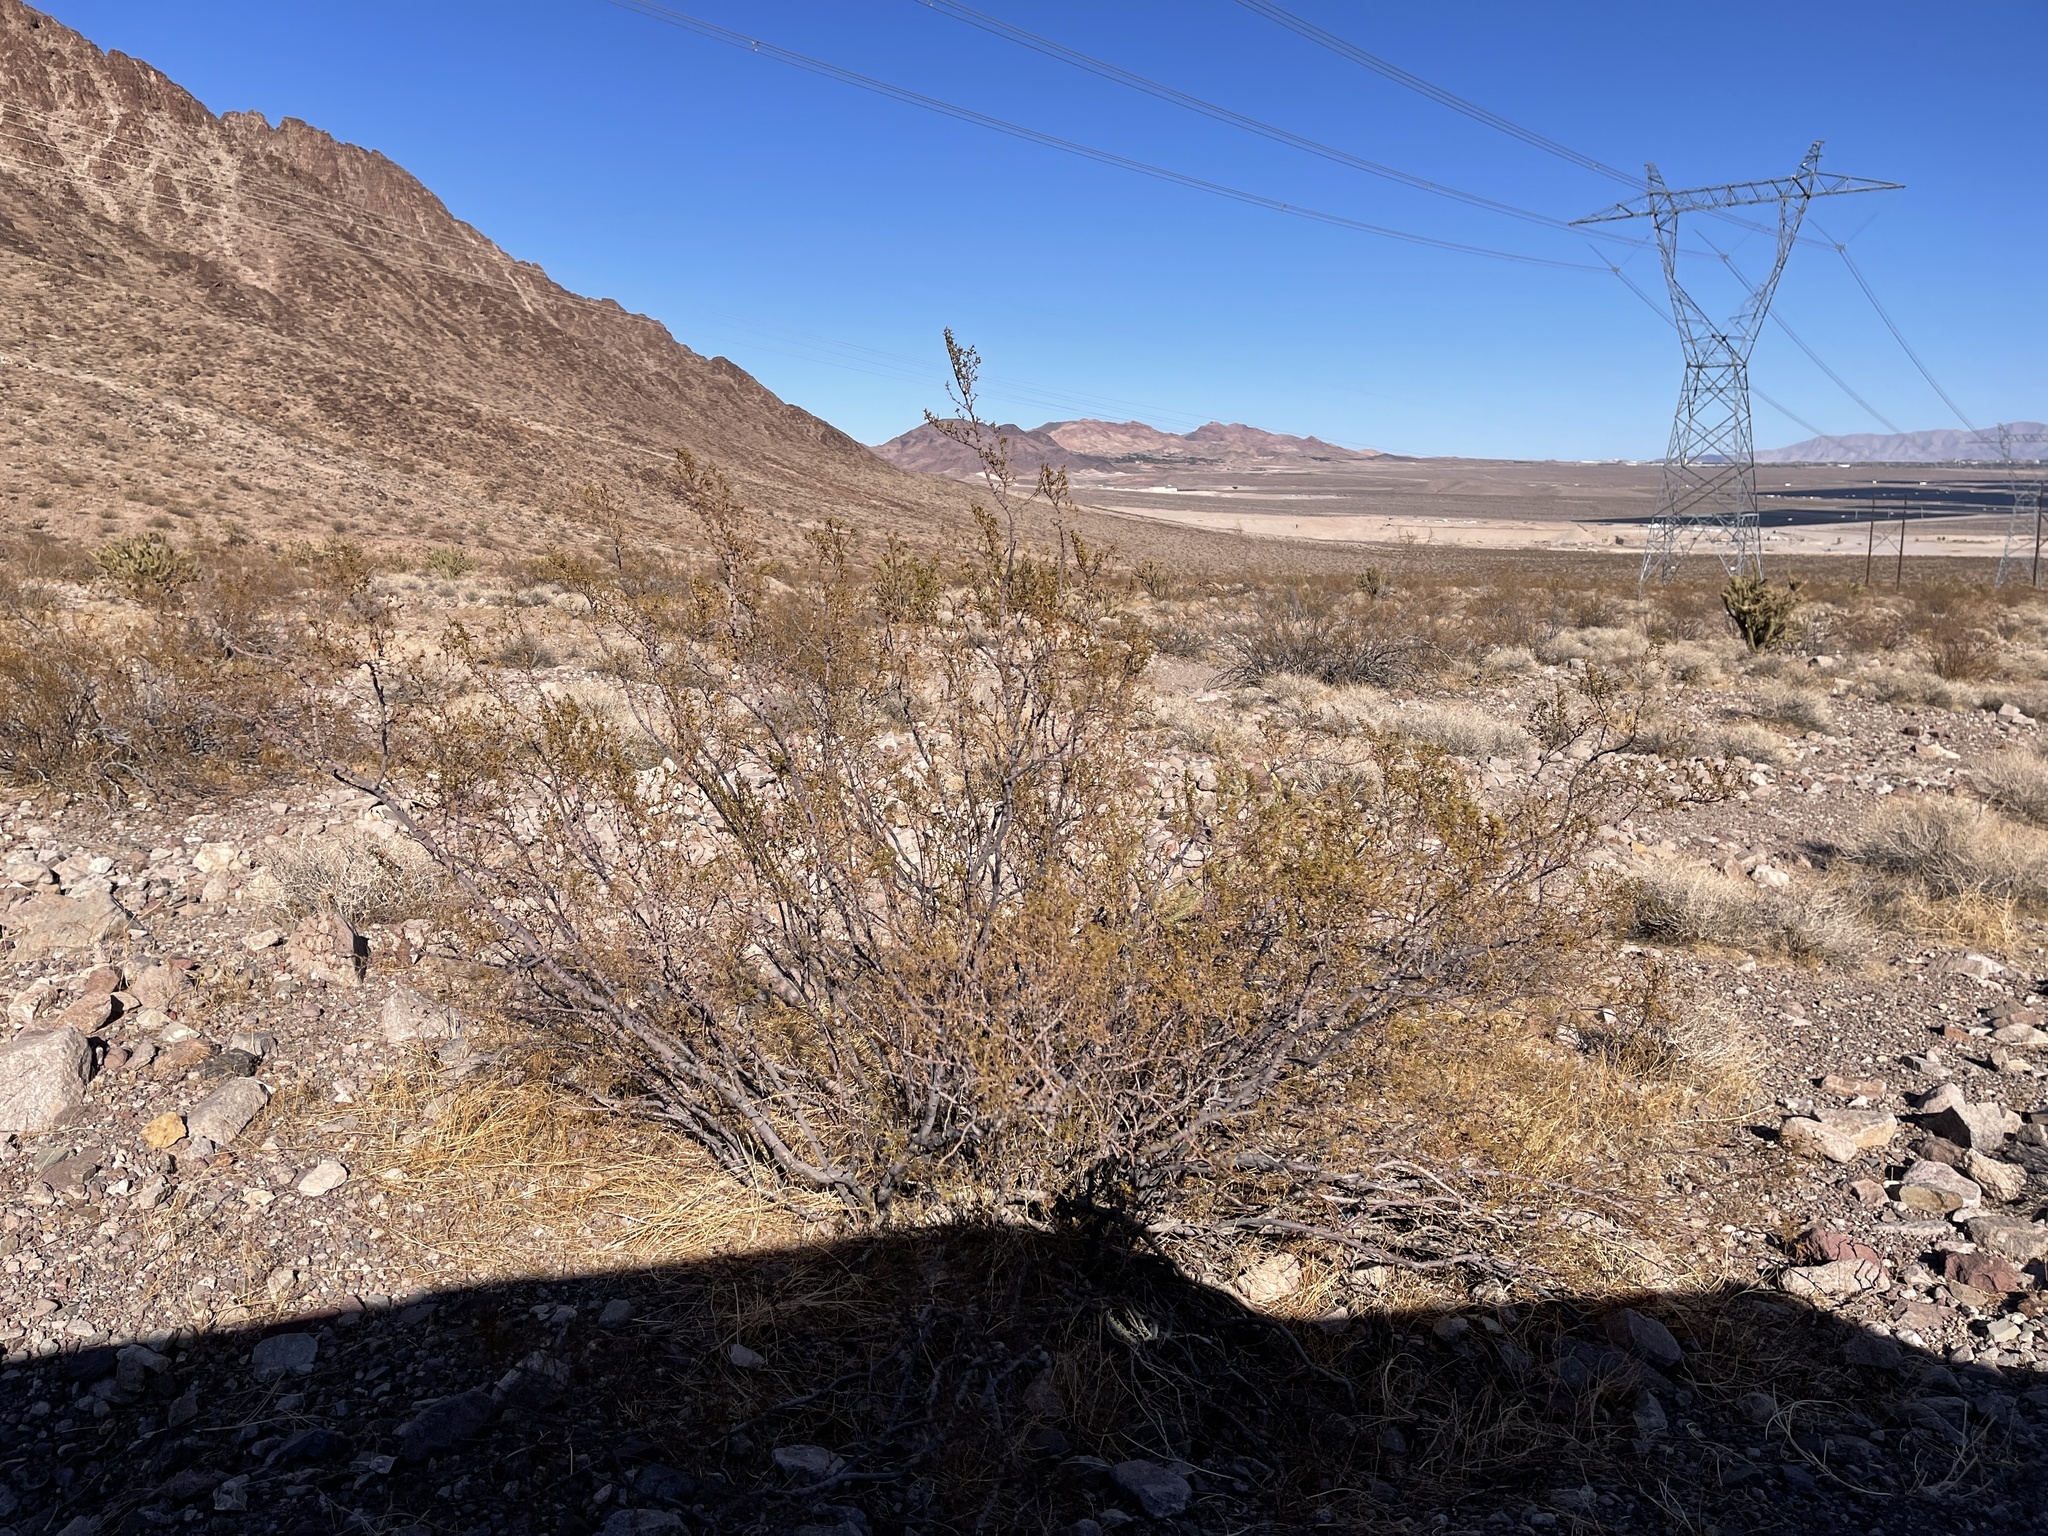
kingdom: Plantae
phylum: Tracheophyta
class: Magnoliopsida
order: Zygophyllales
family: Zygophyllaceae
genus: Larrea
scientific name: Larrea tridentata
